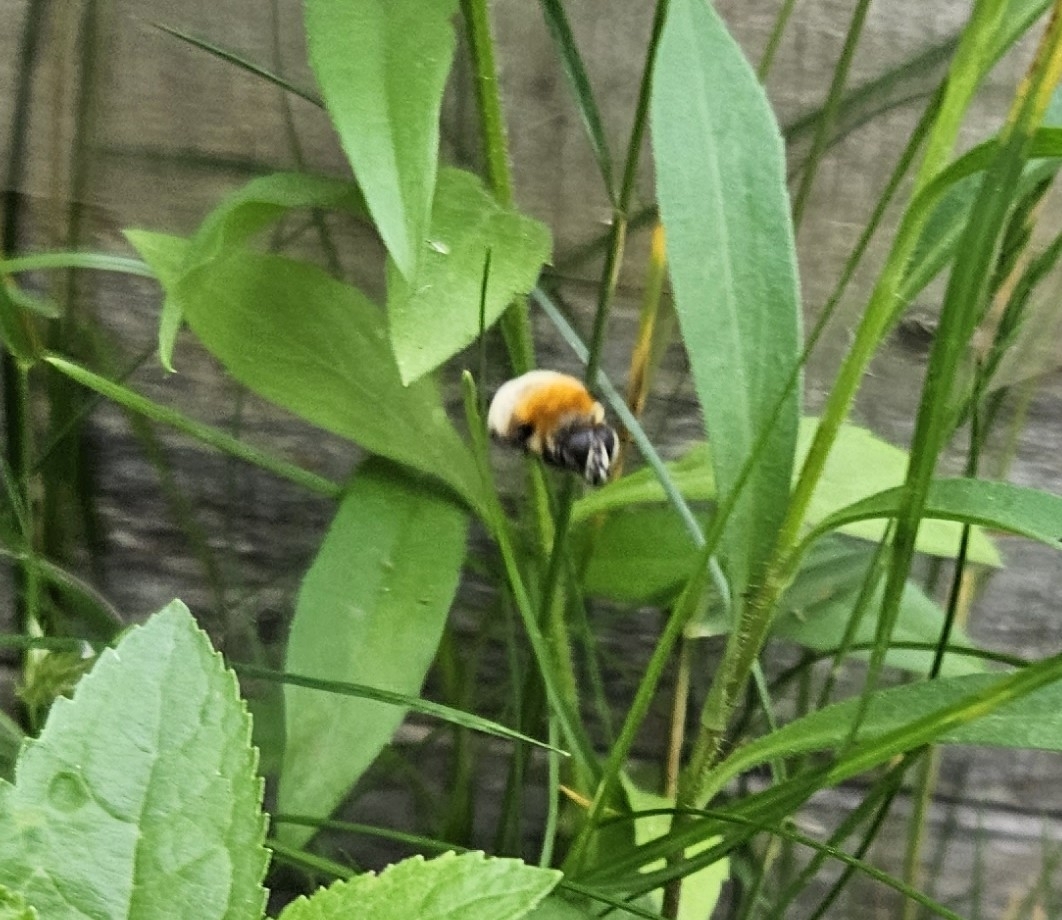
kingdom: Animalia
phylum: Arthropoda
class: Insecta
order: Diptera
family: Syrphidae
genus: Merodon
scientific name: Merodon equestris
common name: Greater bulb-fly
